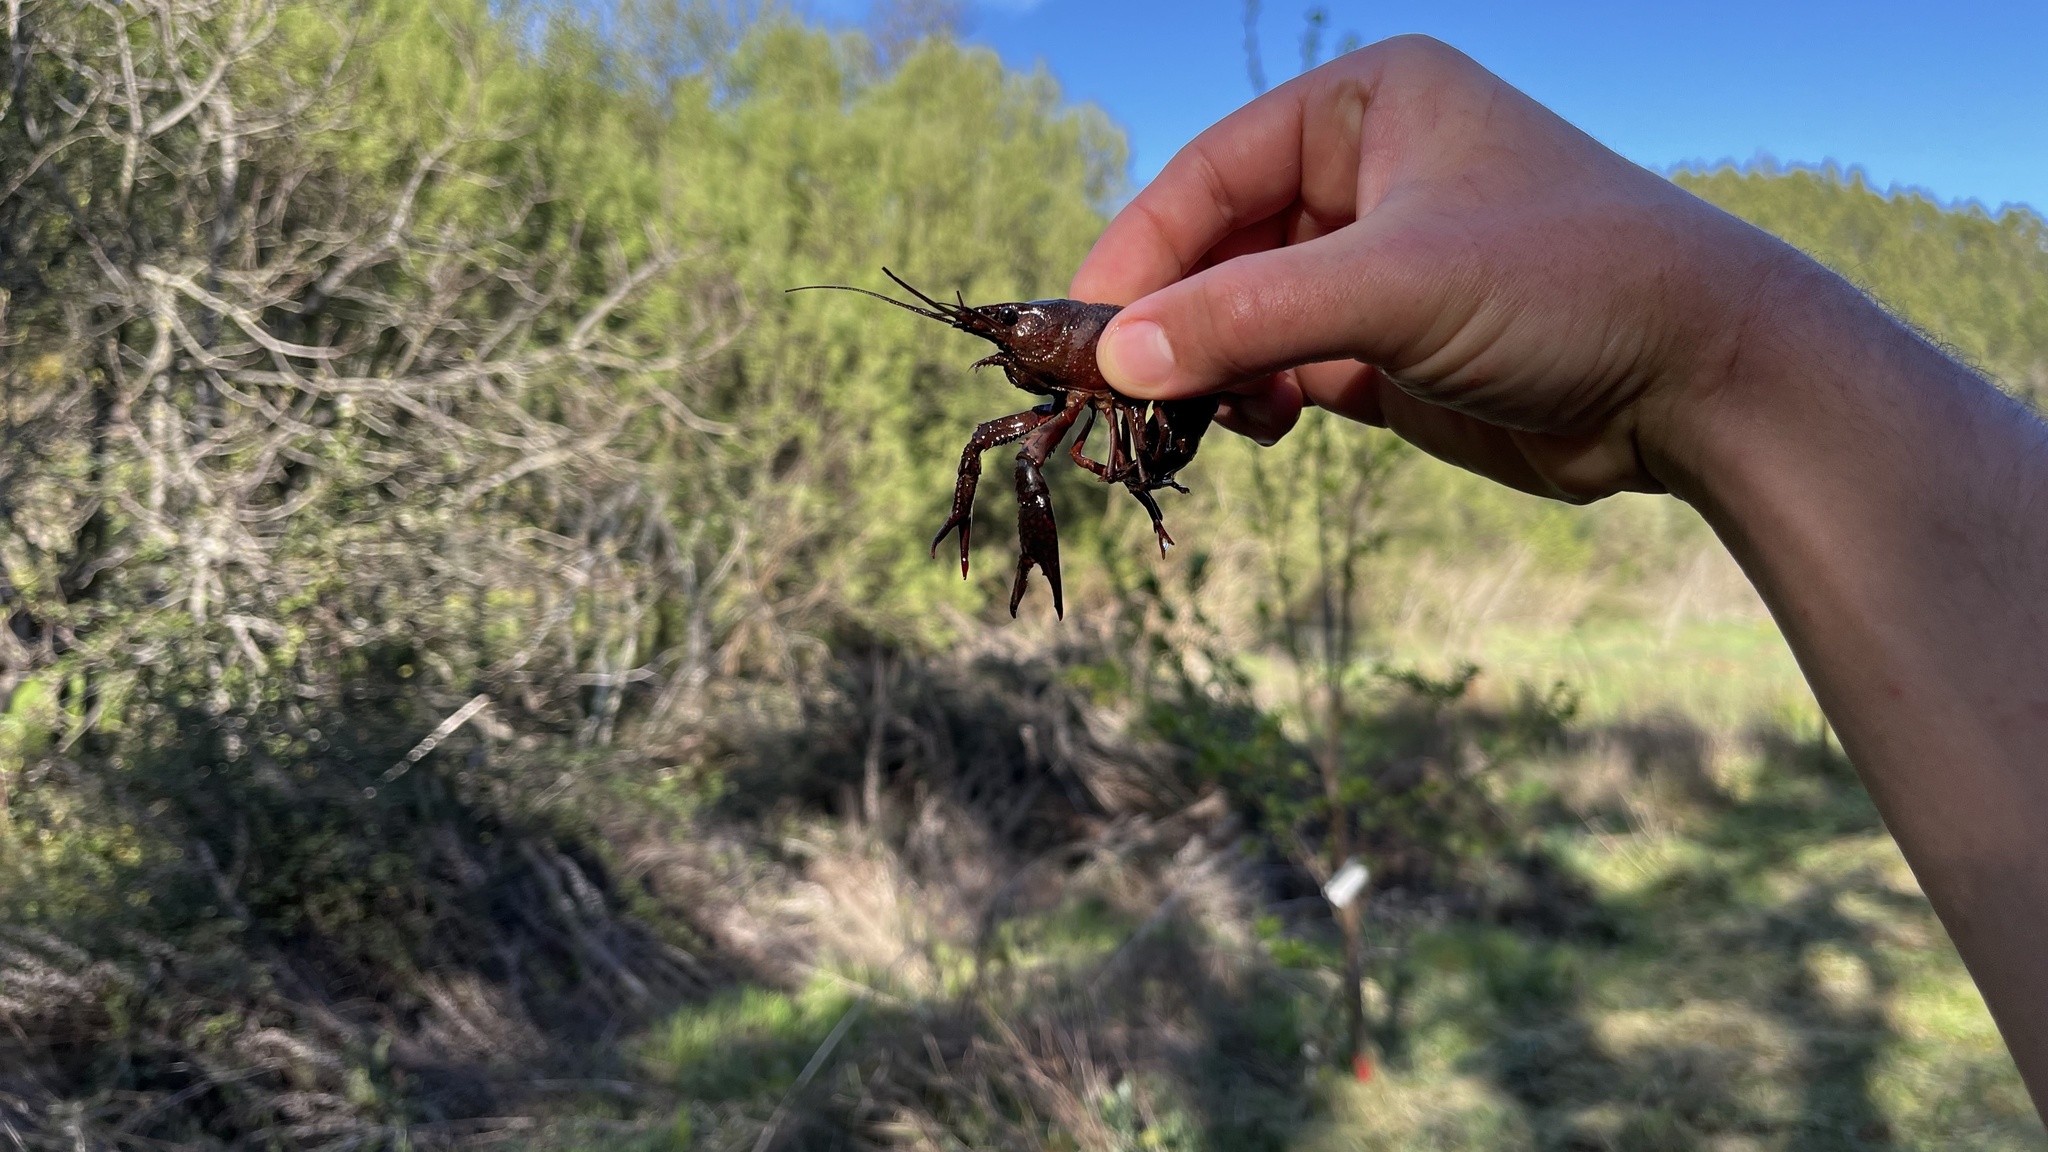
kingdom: Animalia
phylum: Arthropoda
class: Malacostraca
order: Decapoda
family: Cambaridae
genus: Procambarus
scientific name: Procambarus clarkii
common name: Red swamp crayfish
